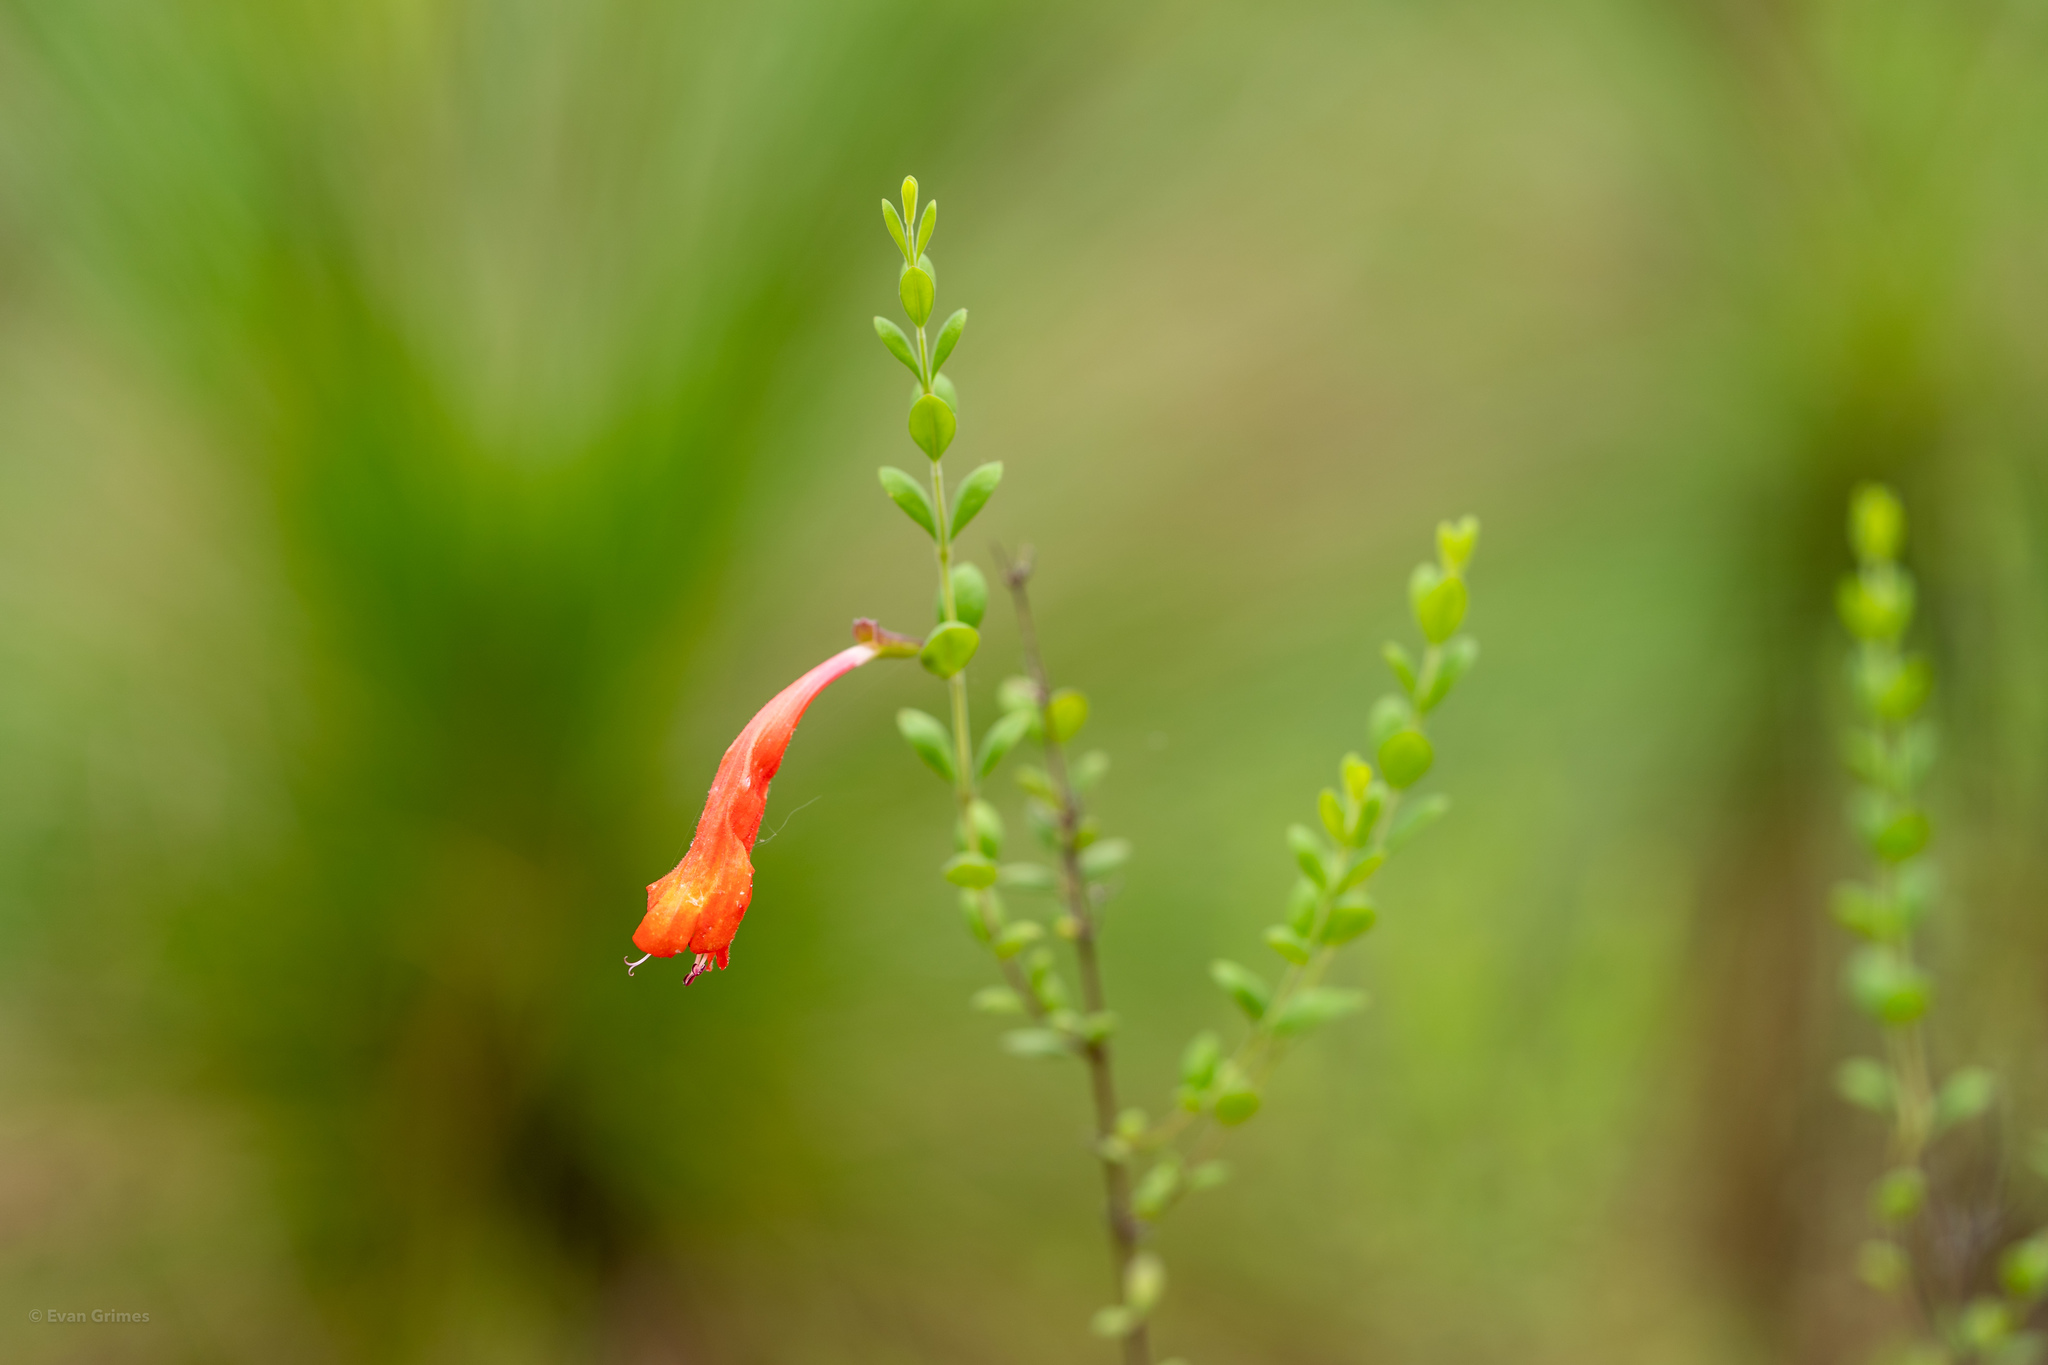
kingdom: Plantae
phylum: Tracheophyta
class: Magnoliopsida
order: Lamiales
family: Lamiaceae
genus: Clinopodium
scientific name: Clinopodium coccineum
